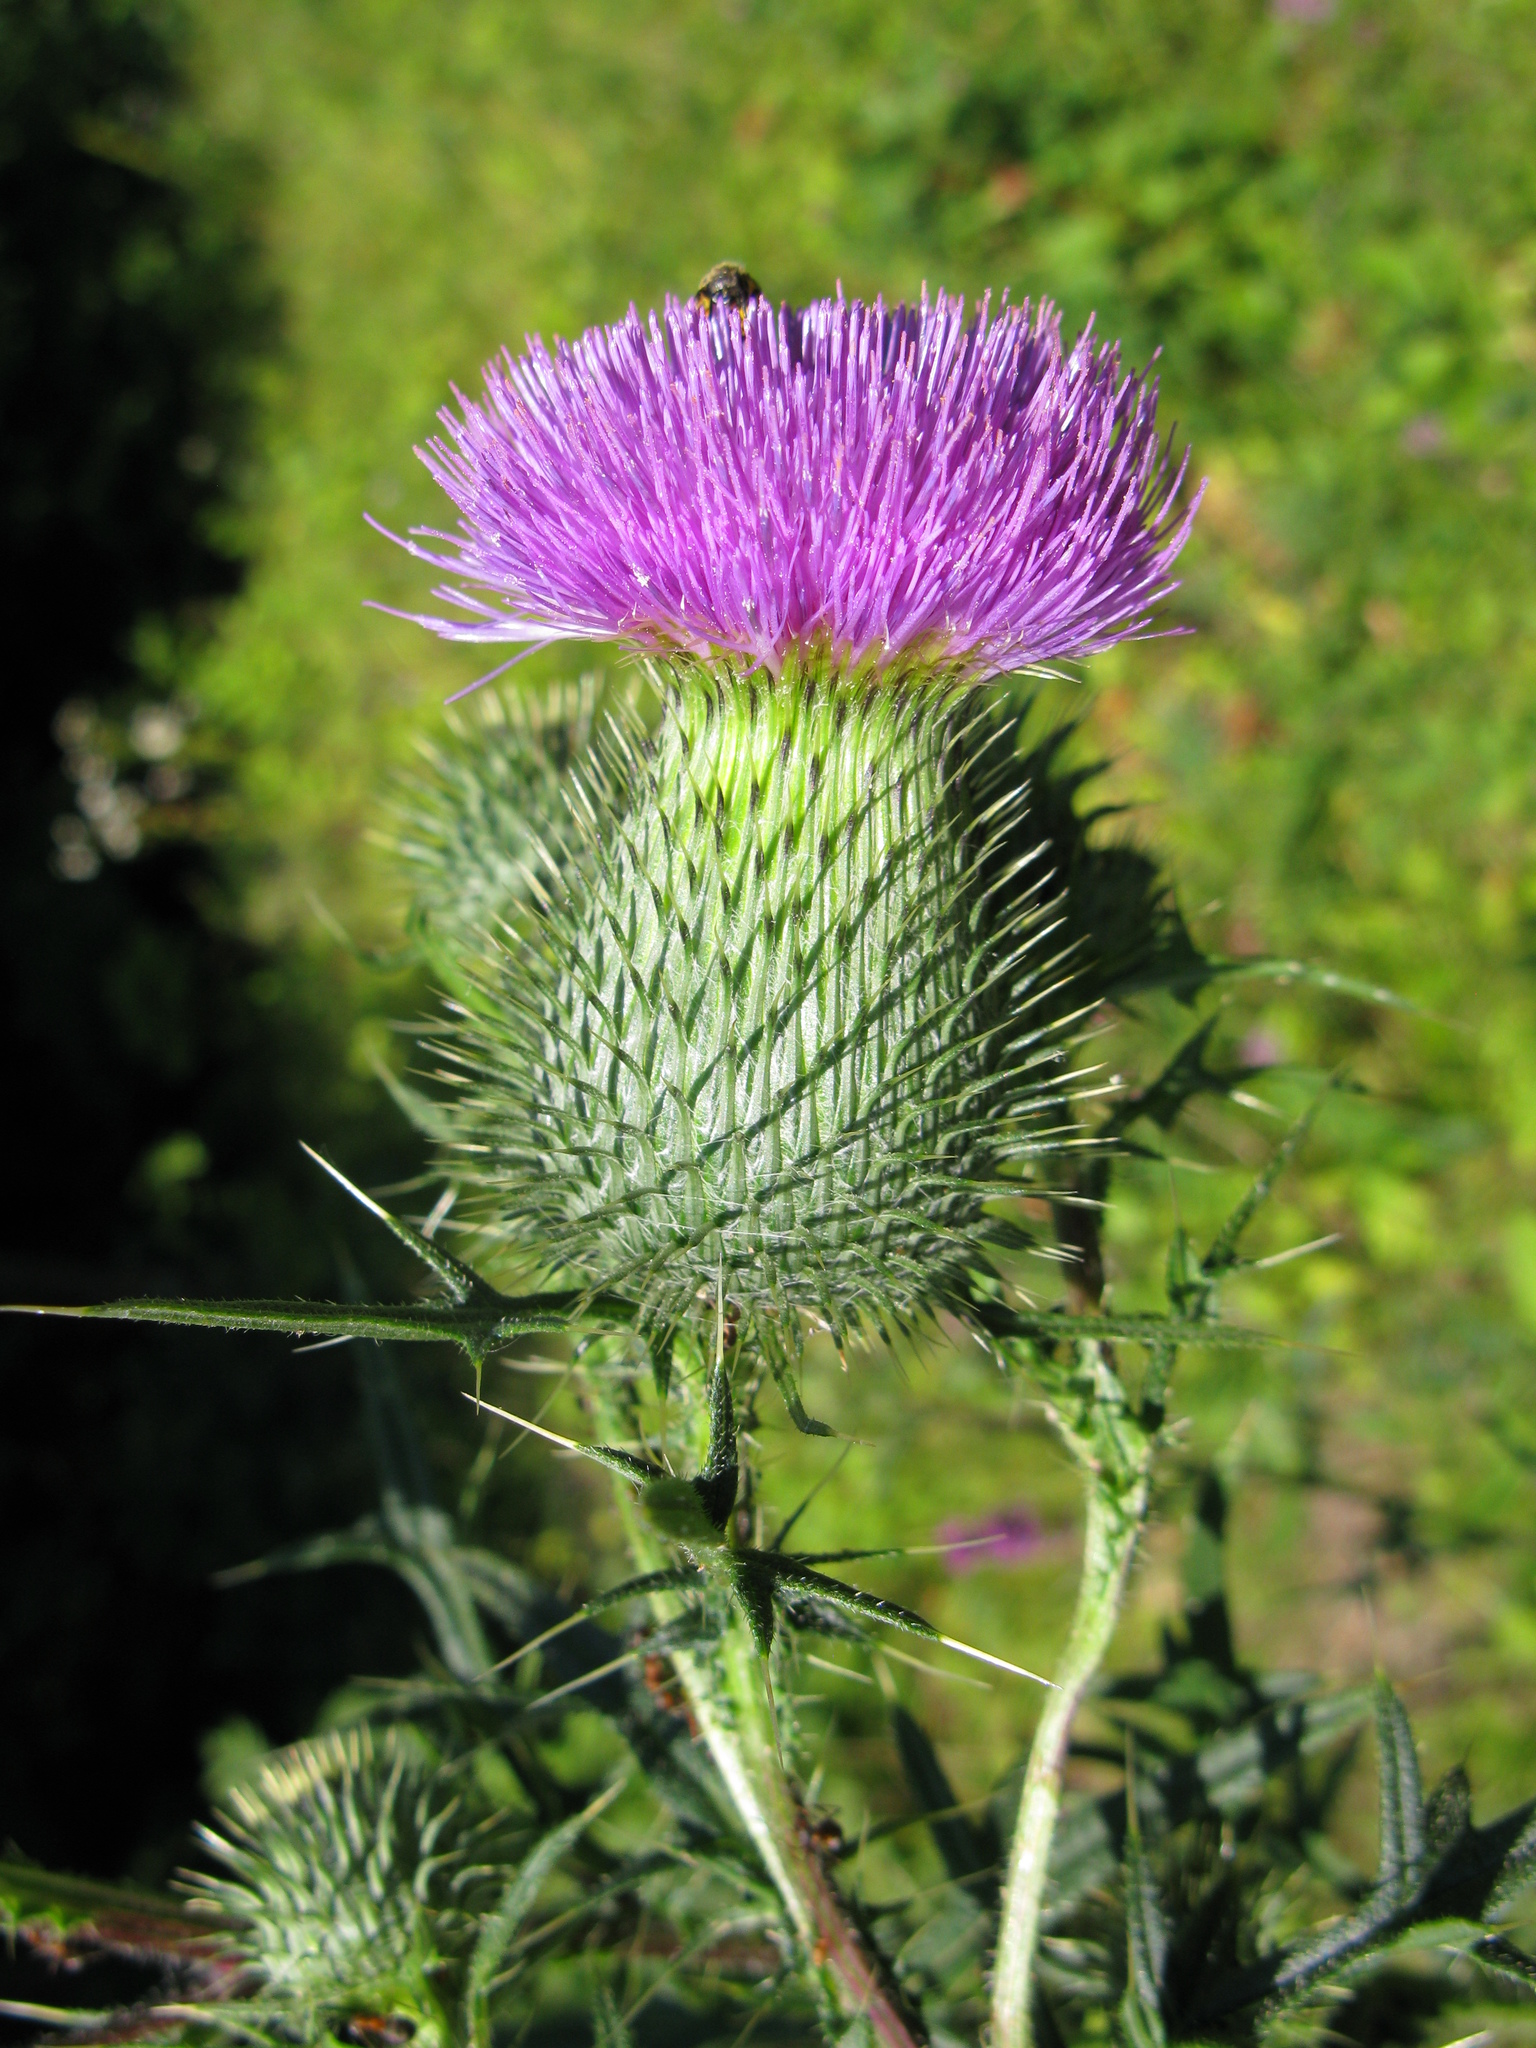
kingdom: Plantae
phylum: Tracheophyta
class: Magnoliopsida
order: Asterales
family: Asteraceae
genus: Cirsium
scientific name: Cirsium vulgare
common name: Bull thistle
